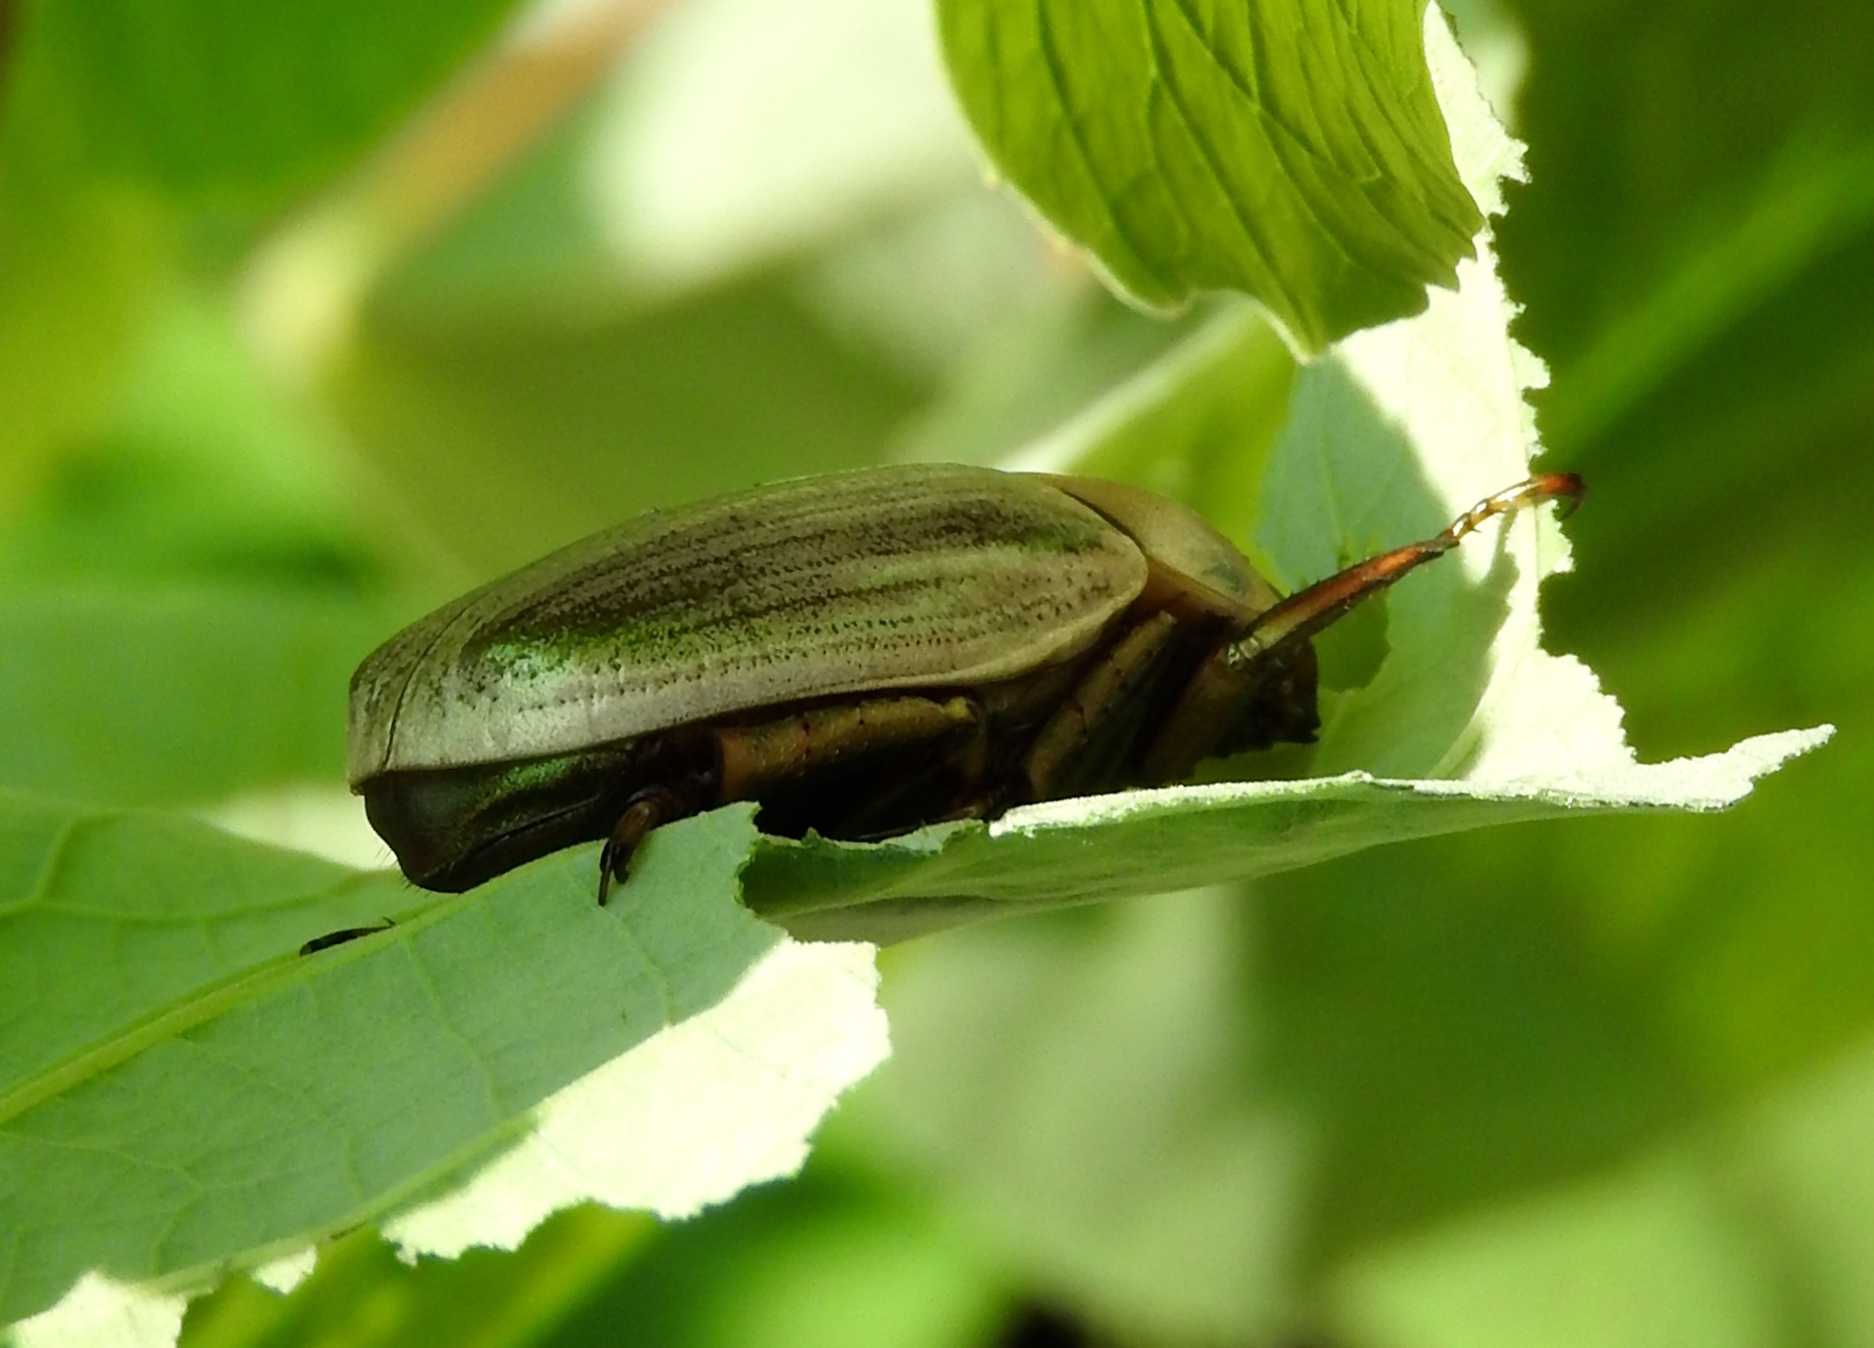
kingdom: Animalia
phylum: Arthropoda
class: Insecta
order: Coleoptera
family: Scarabaeidae
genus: Pelidnota
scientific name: Pelidnota virescens
